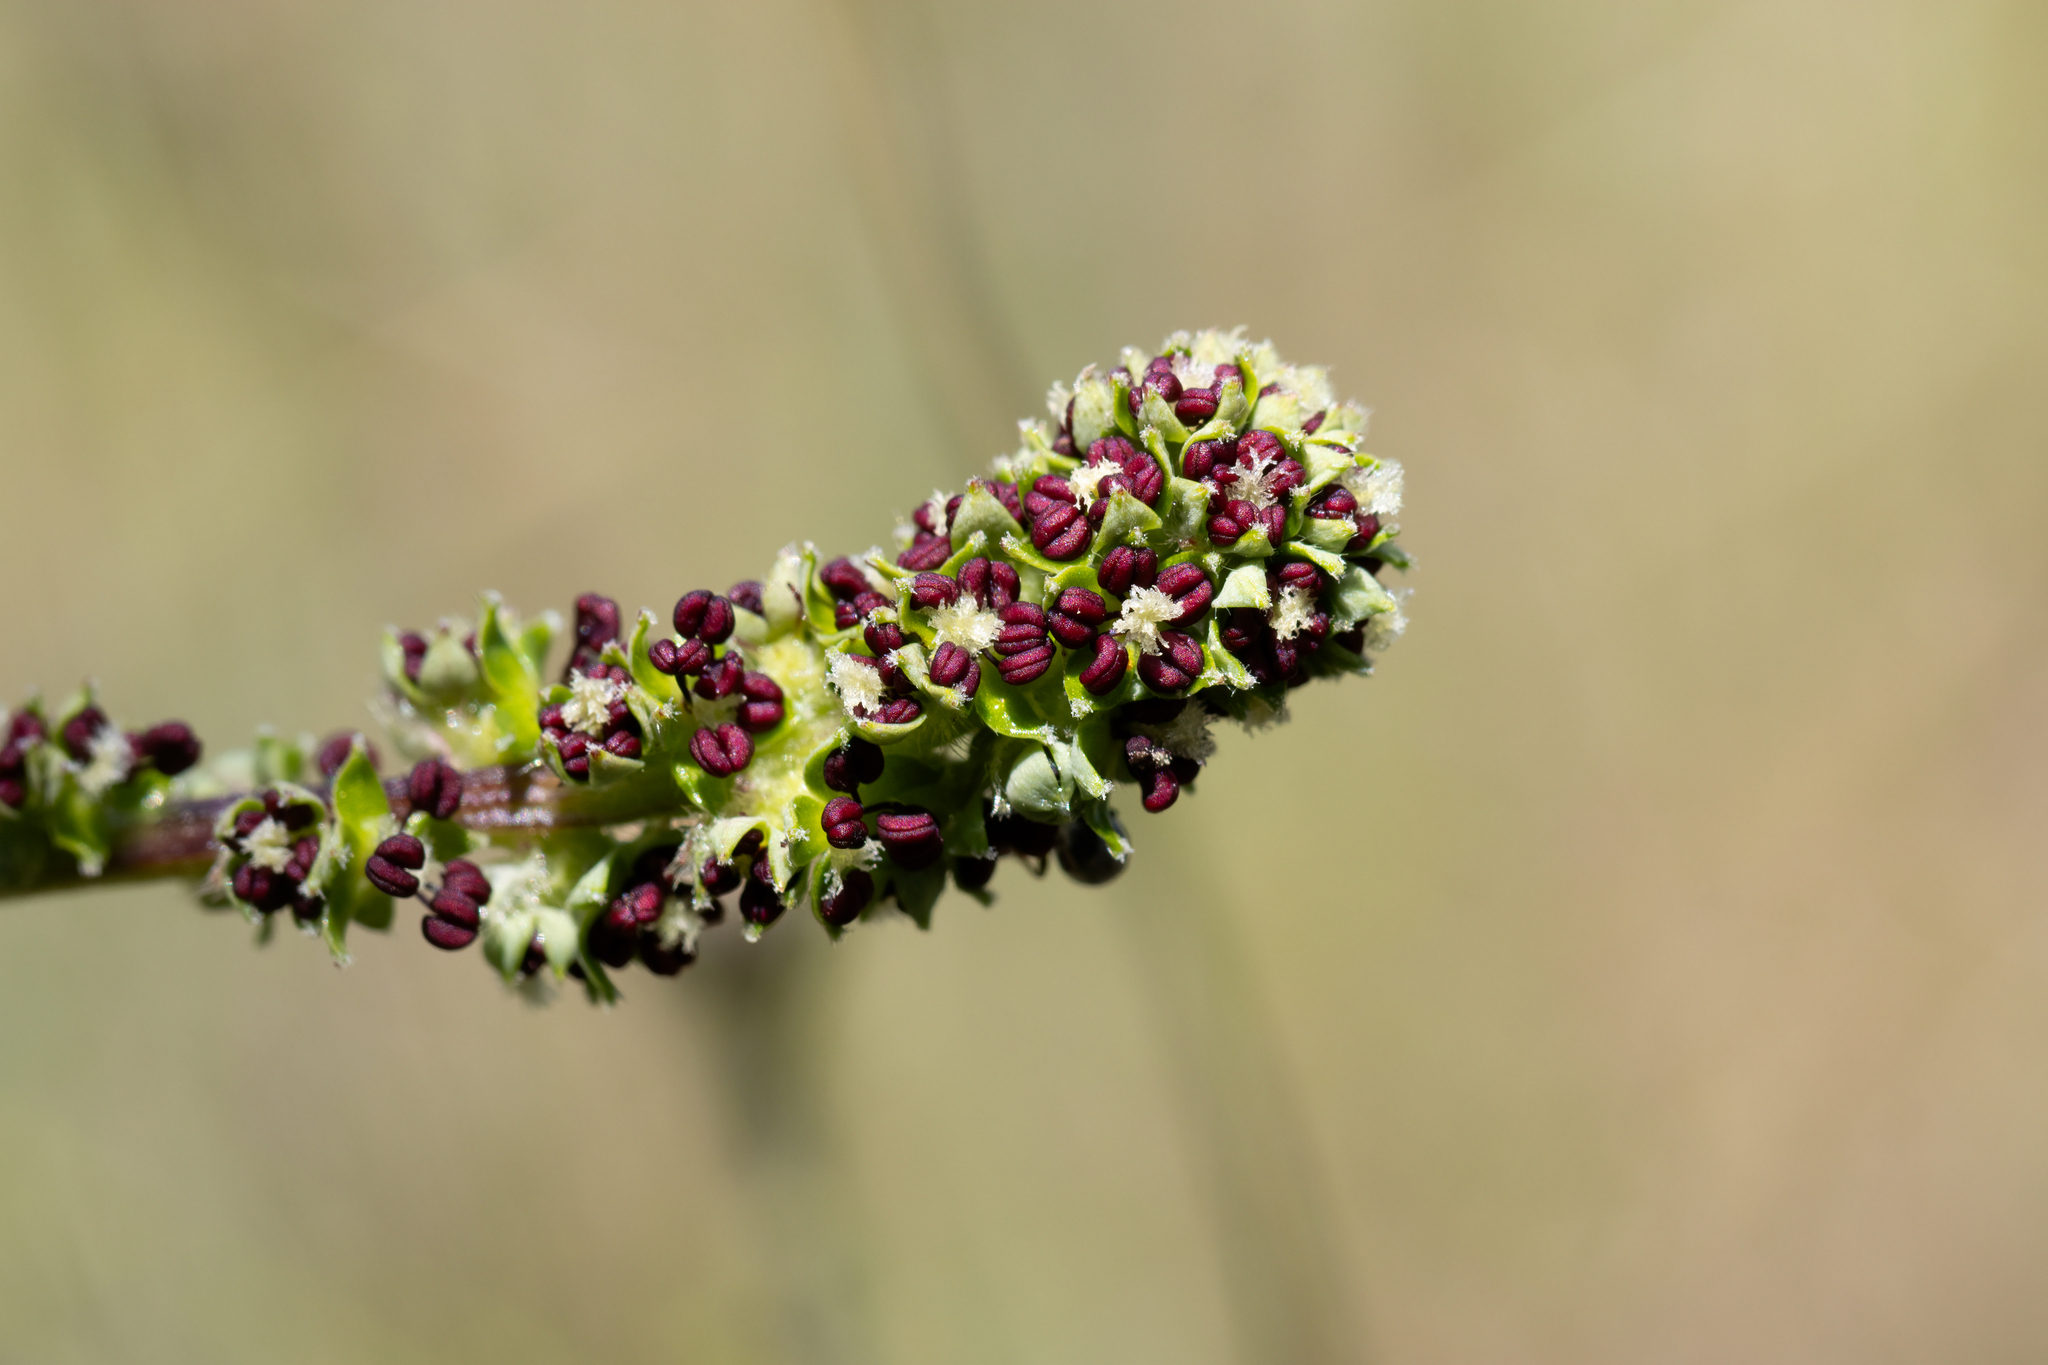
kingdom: Plantae
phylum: Tracheophyta
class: Magnoliopsida
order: Rosales
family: Rosaceae
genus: Acaena
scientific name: Acaena echinata
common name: Sheepbur
